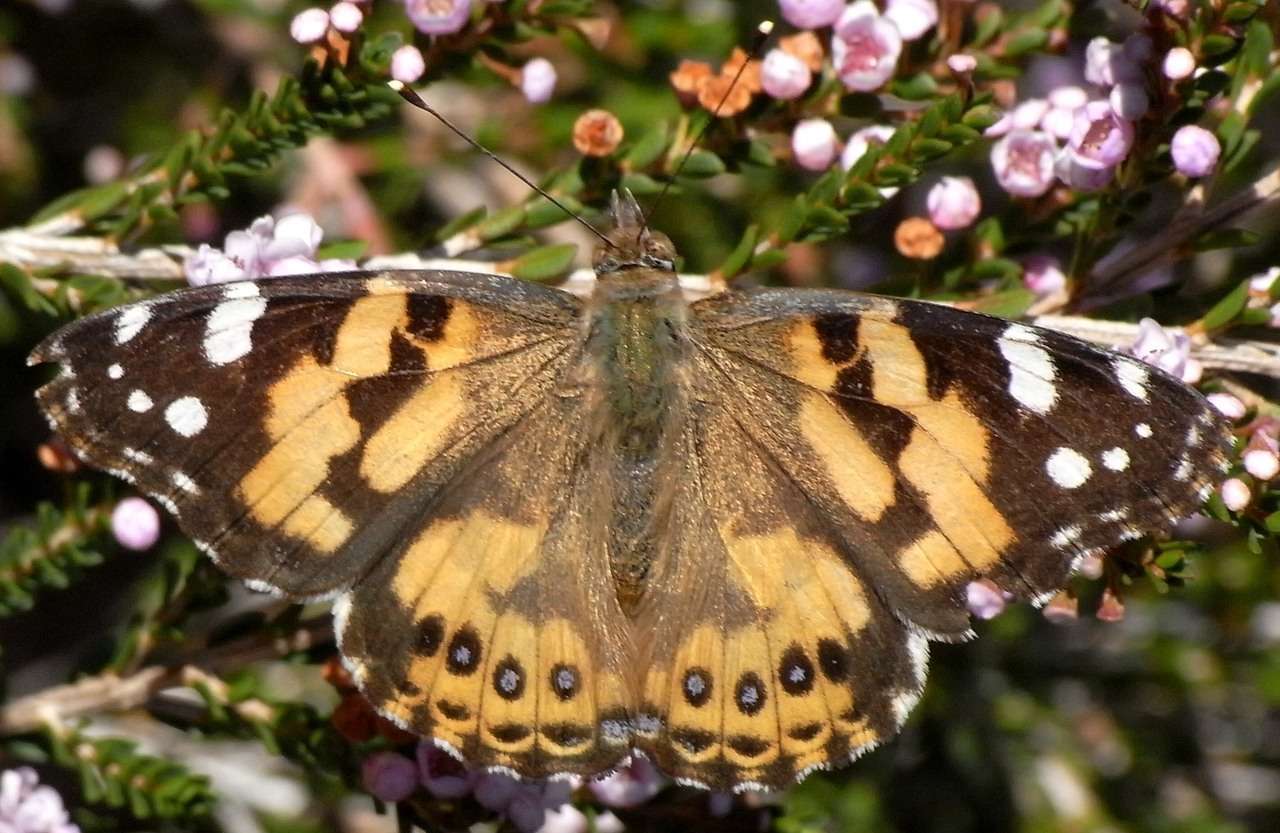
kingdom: Animalia
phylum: Arthropoda
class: Insecta
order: Lepidoptera
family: Nymphalidae
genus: Vanessa
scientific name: Vanessa kershawi
